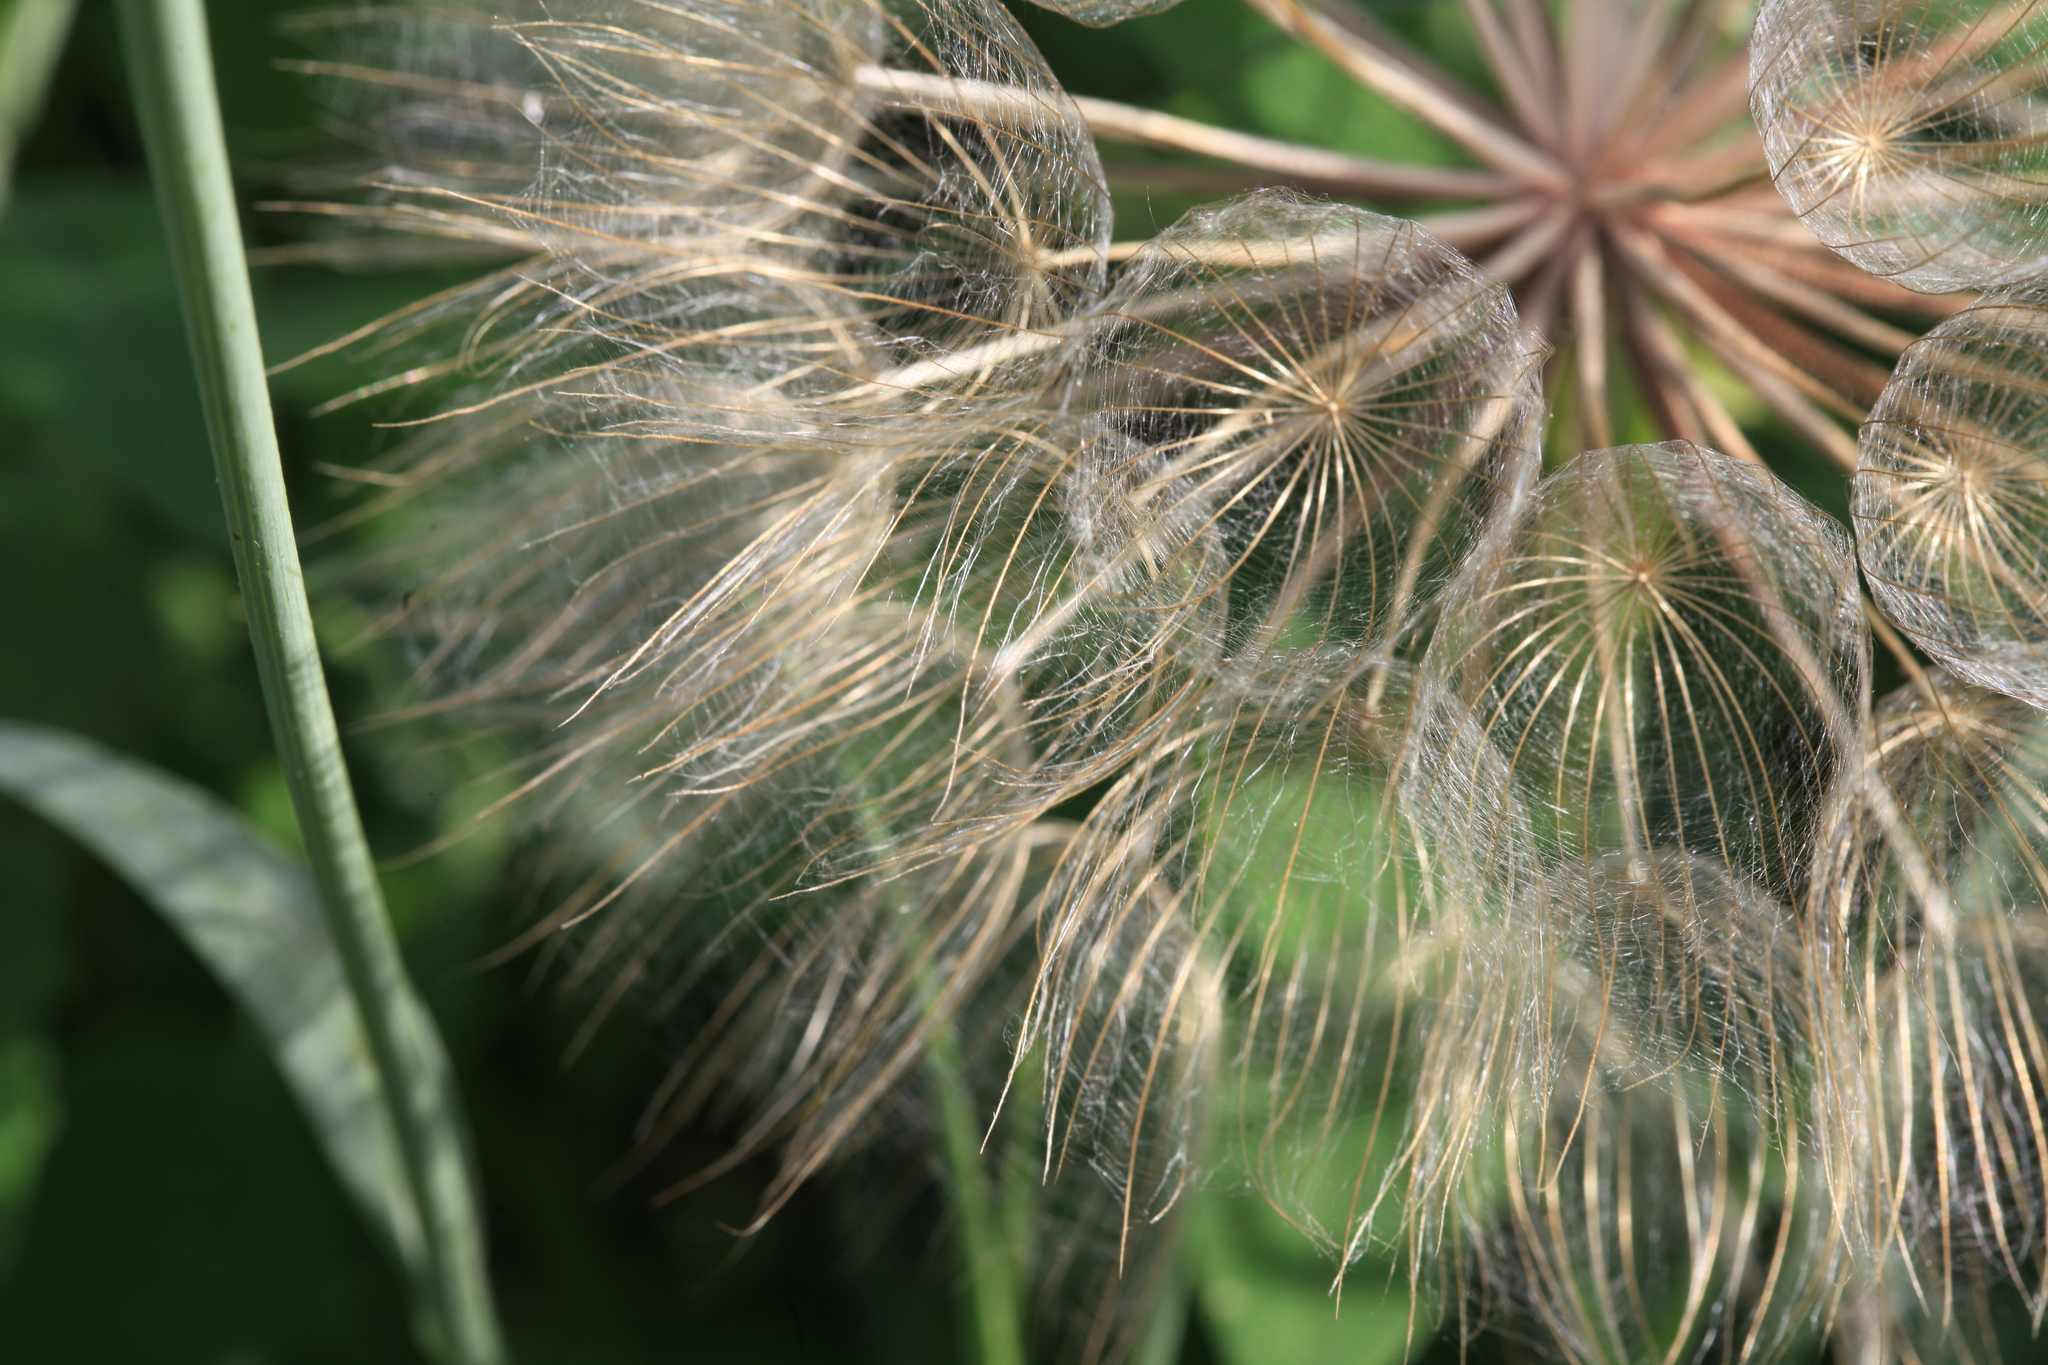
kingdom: Plantae
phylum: Tracheophyta
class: Magnoliopsida
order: Asterales
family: Asteraceae
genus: Tragopogon
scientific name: Tragopogon pratensis
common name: Goat's-beard
